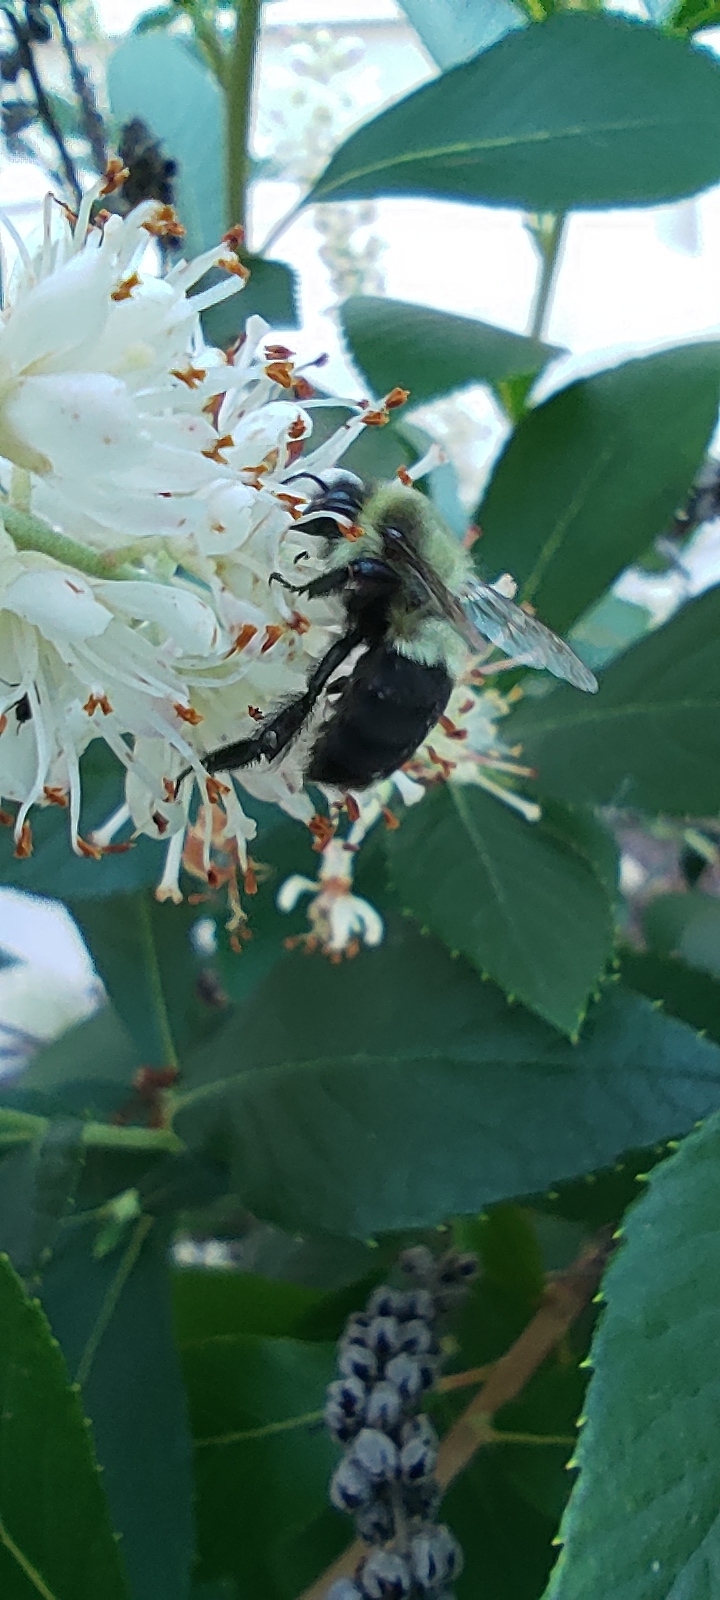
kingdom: Animalia
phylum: Arthropoda
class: Insecta
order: Hymenoptera
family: Apidae
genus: Bombus
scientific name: Bombus impatiens
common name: Common eastern bumble bee
